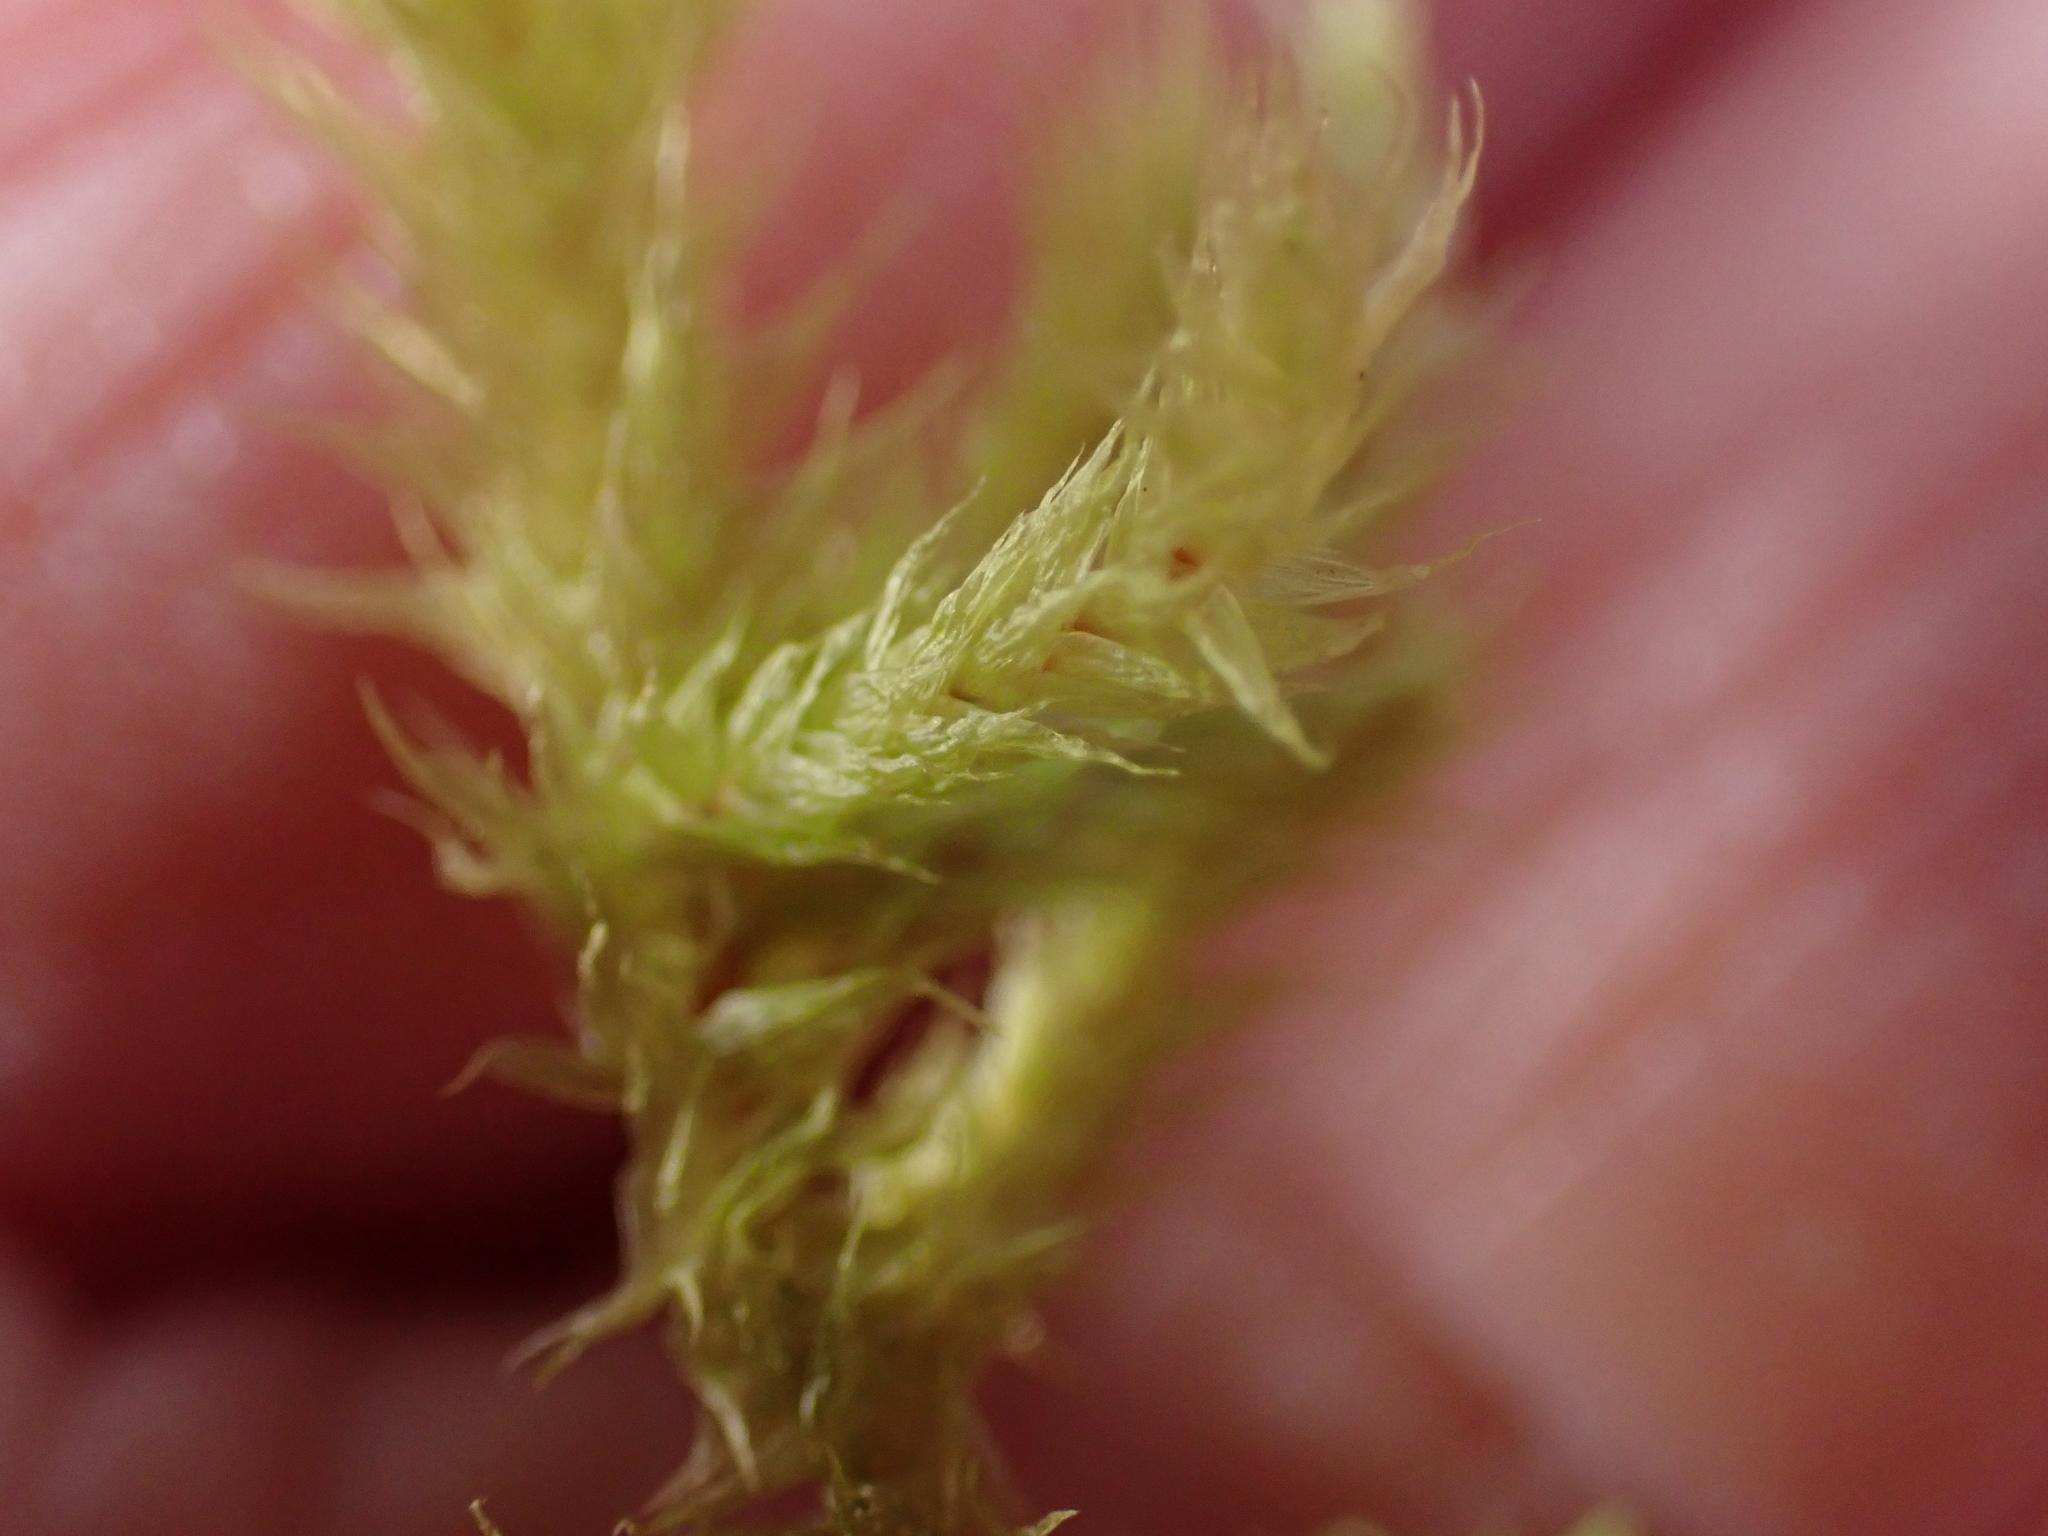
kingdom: Plantae
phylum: Bryophyta
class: Bryopsida
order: Hypnales
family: Hylocomiaceae
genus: Hylocomiadelphus
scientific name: Hylocomiadelphus triquetrus
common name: Rough goose neck moss
